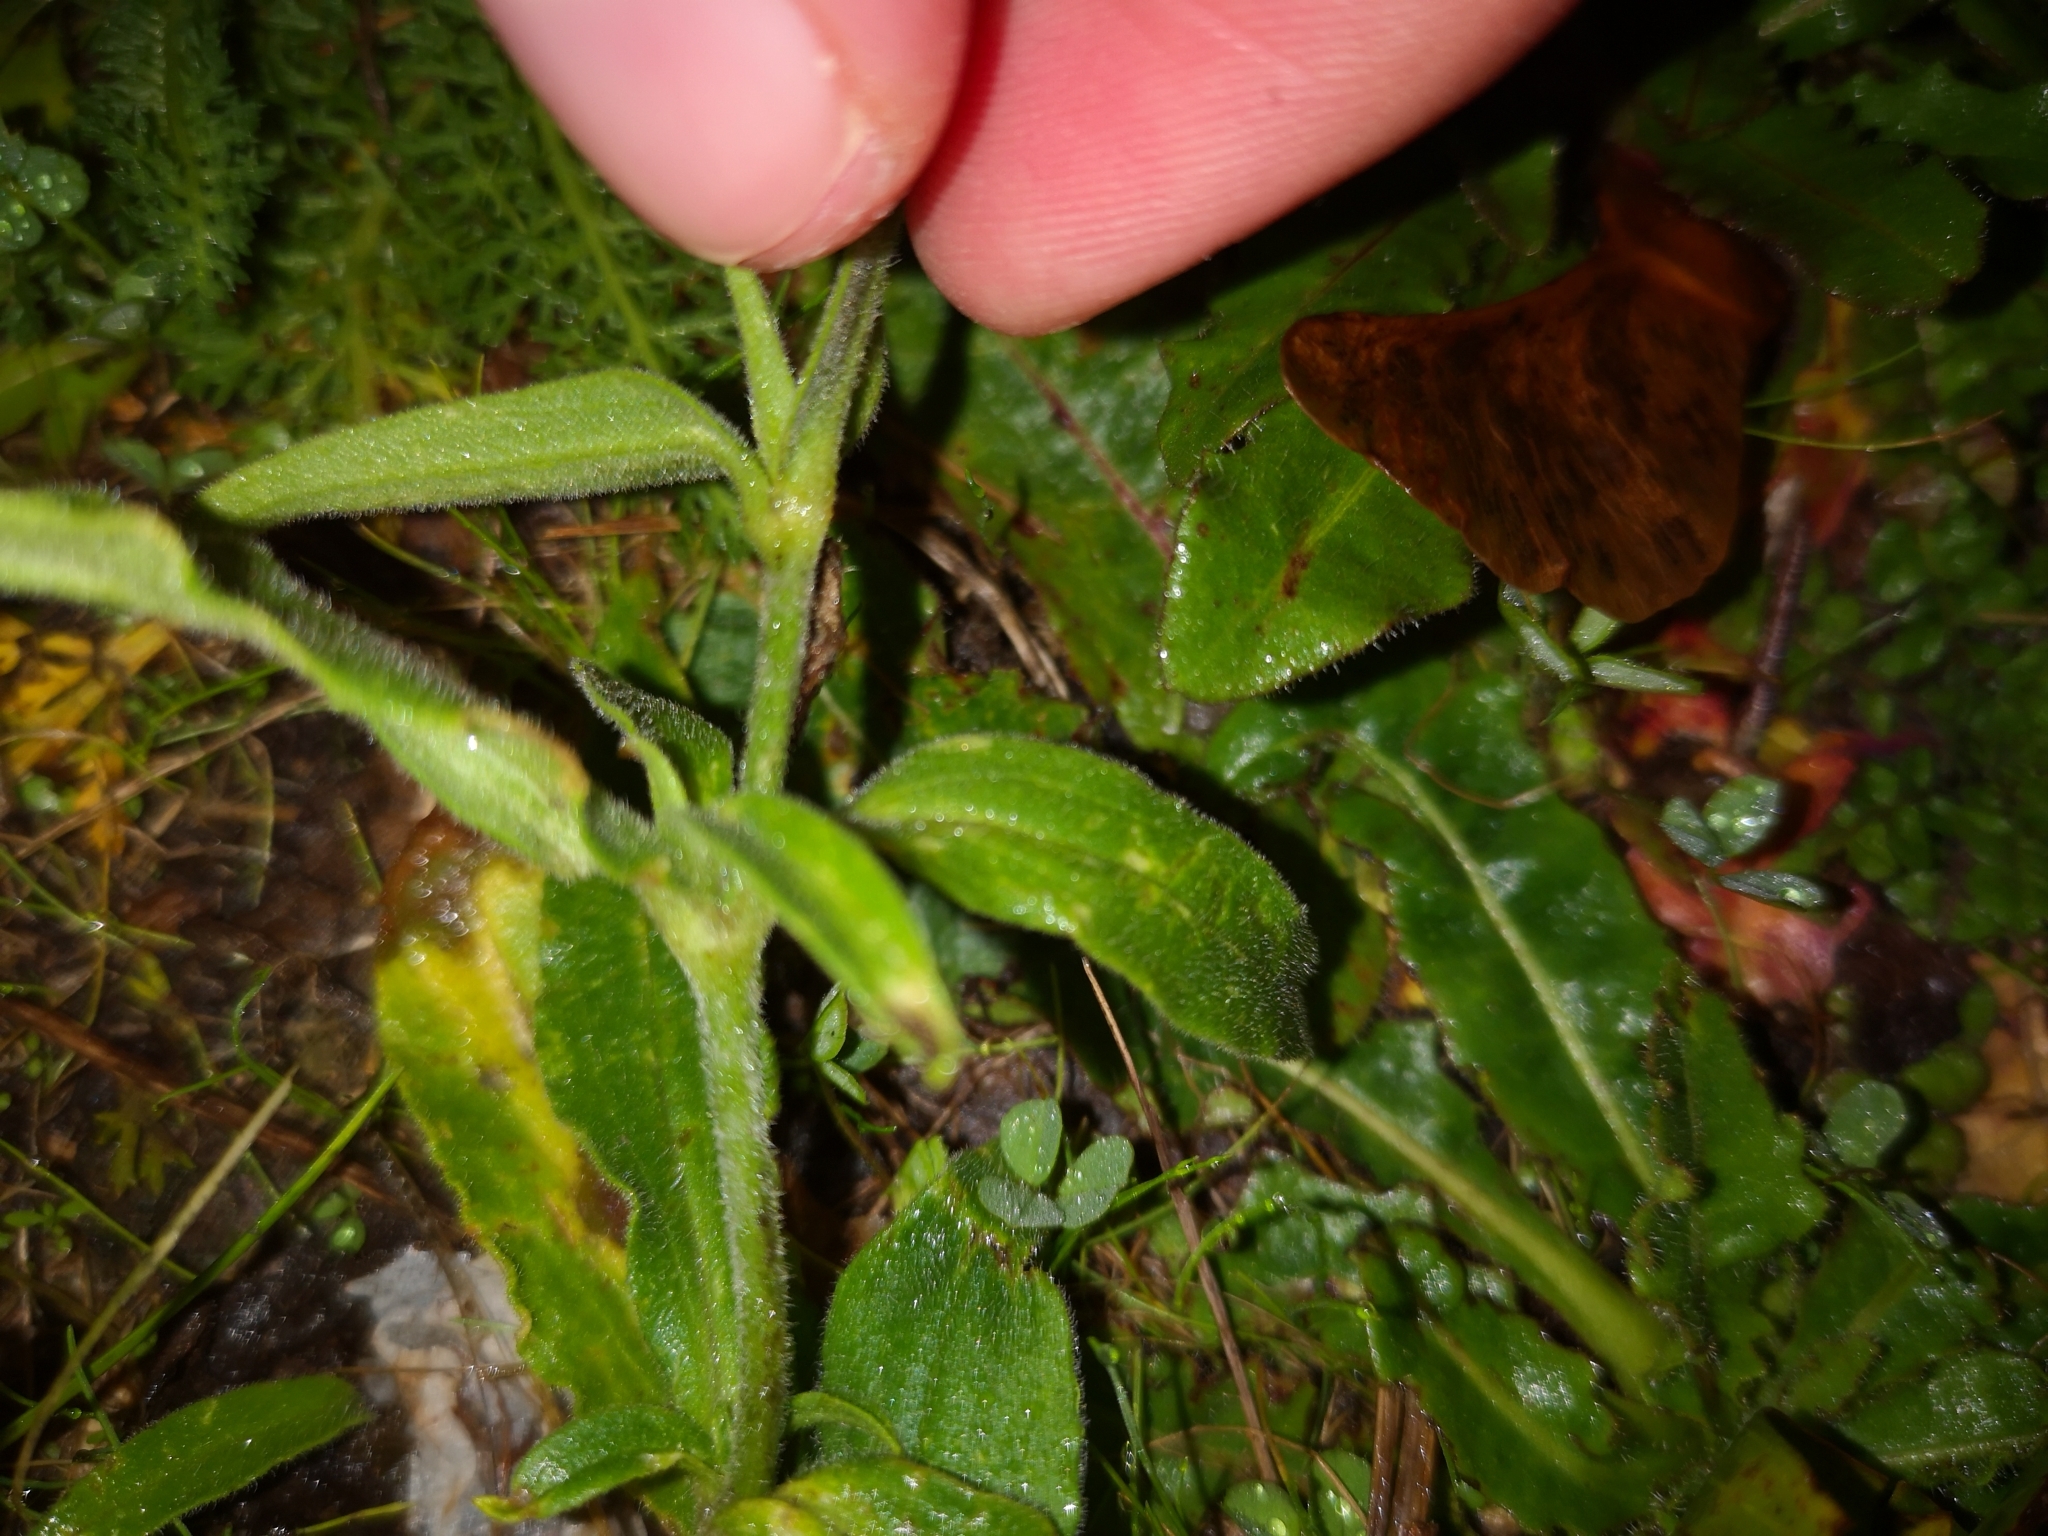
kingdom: Plantae
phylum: Tracheophyta
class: Magnoliopsida
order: Caryophyllales
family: Caryophyllaceae
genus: Silene
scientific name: Silene latifolia
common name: White campion
